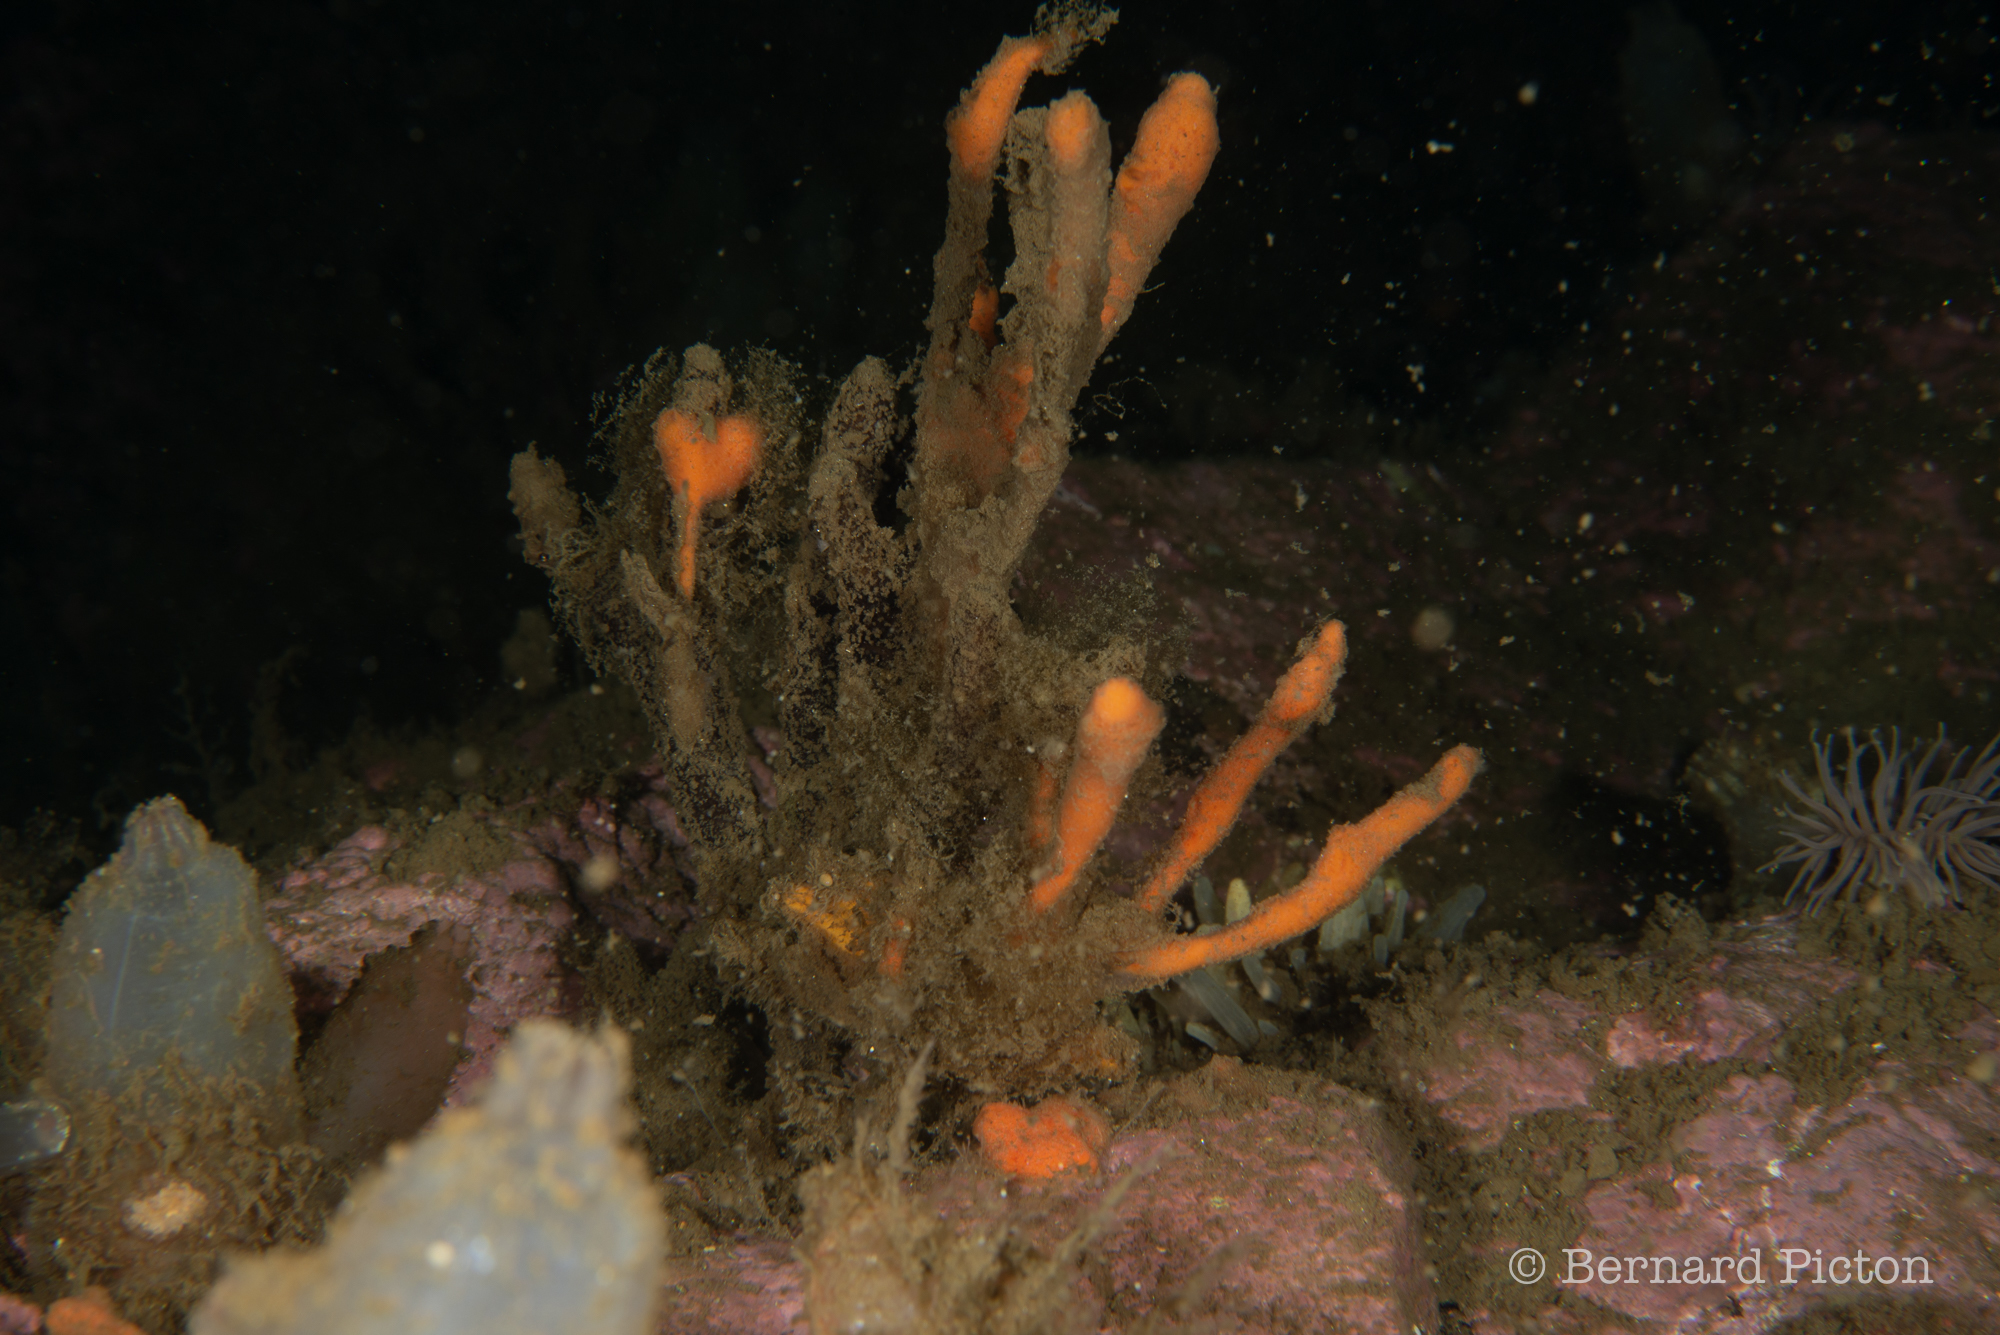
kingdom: Animalia
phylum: Porifera
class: Demospongiae
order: Poecilosclerida
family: Esperiopsidae
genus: Amphilectus
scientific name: Amphilectus fucorum
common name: Carrot-sponge
